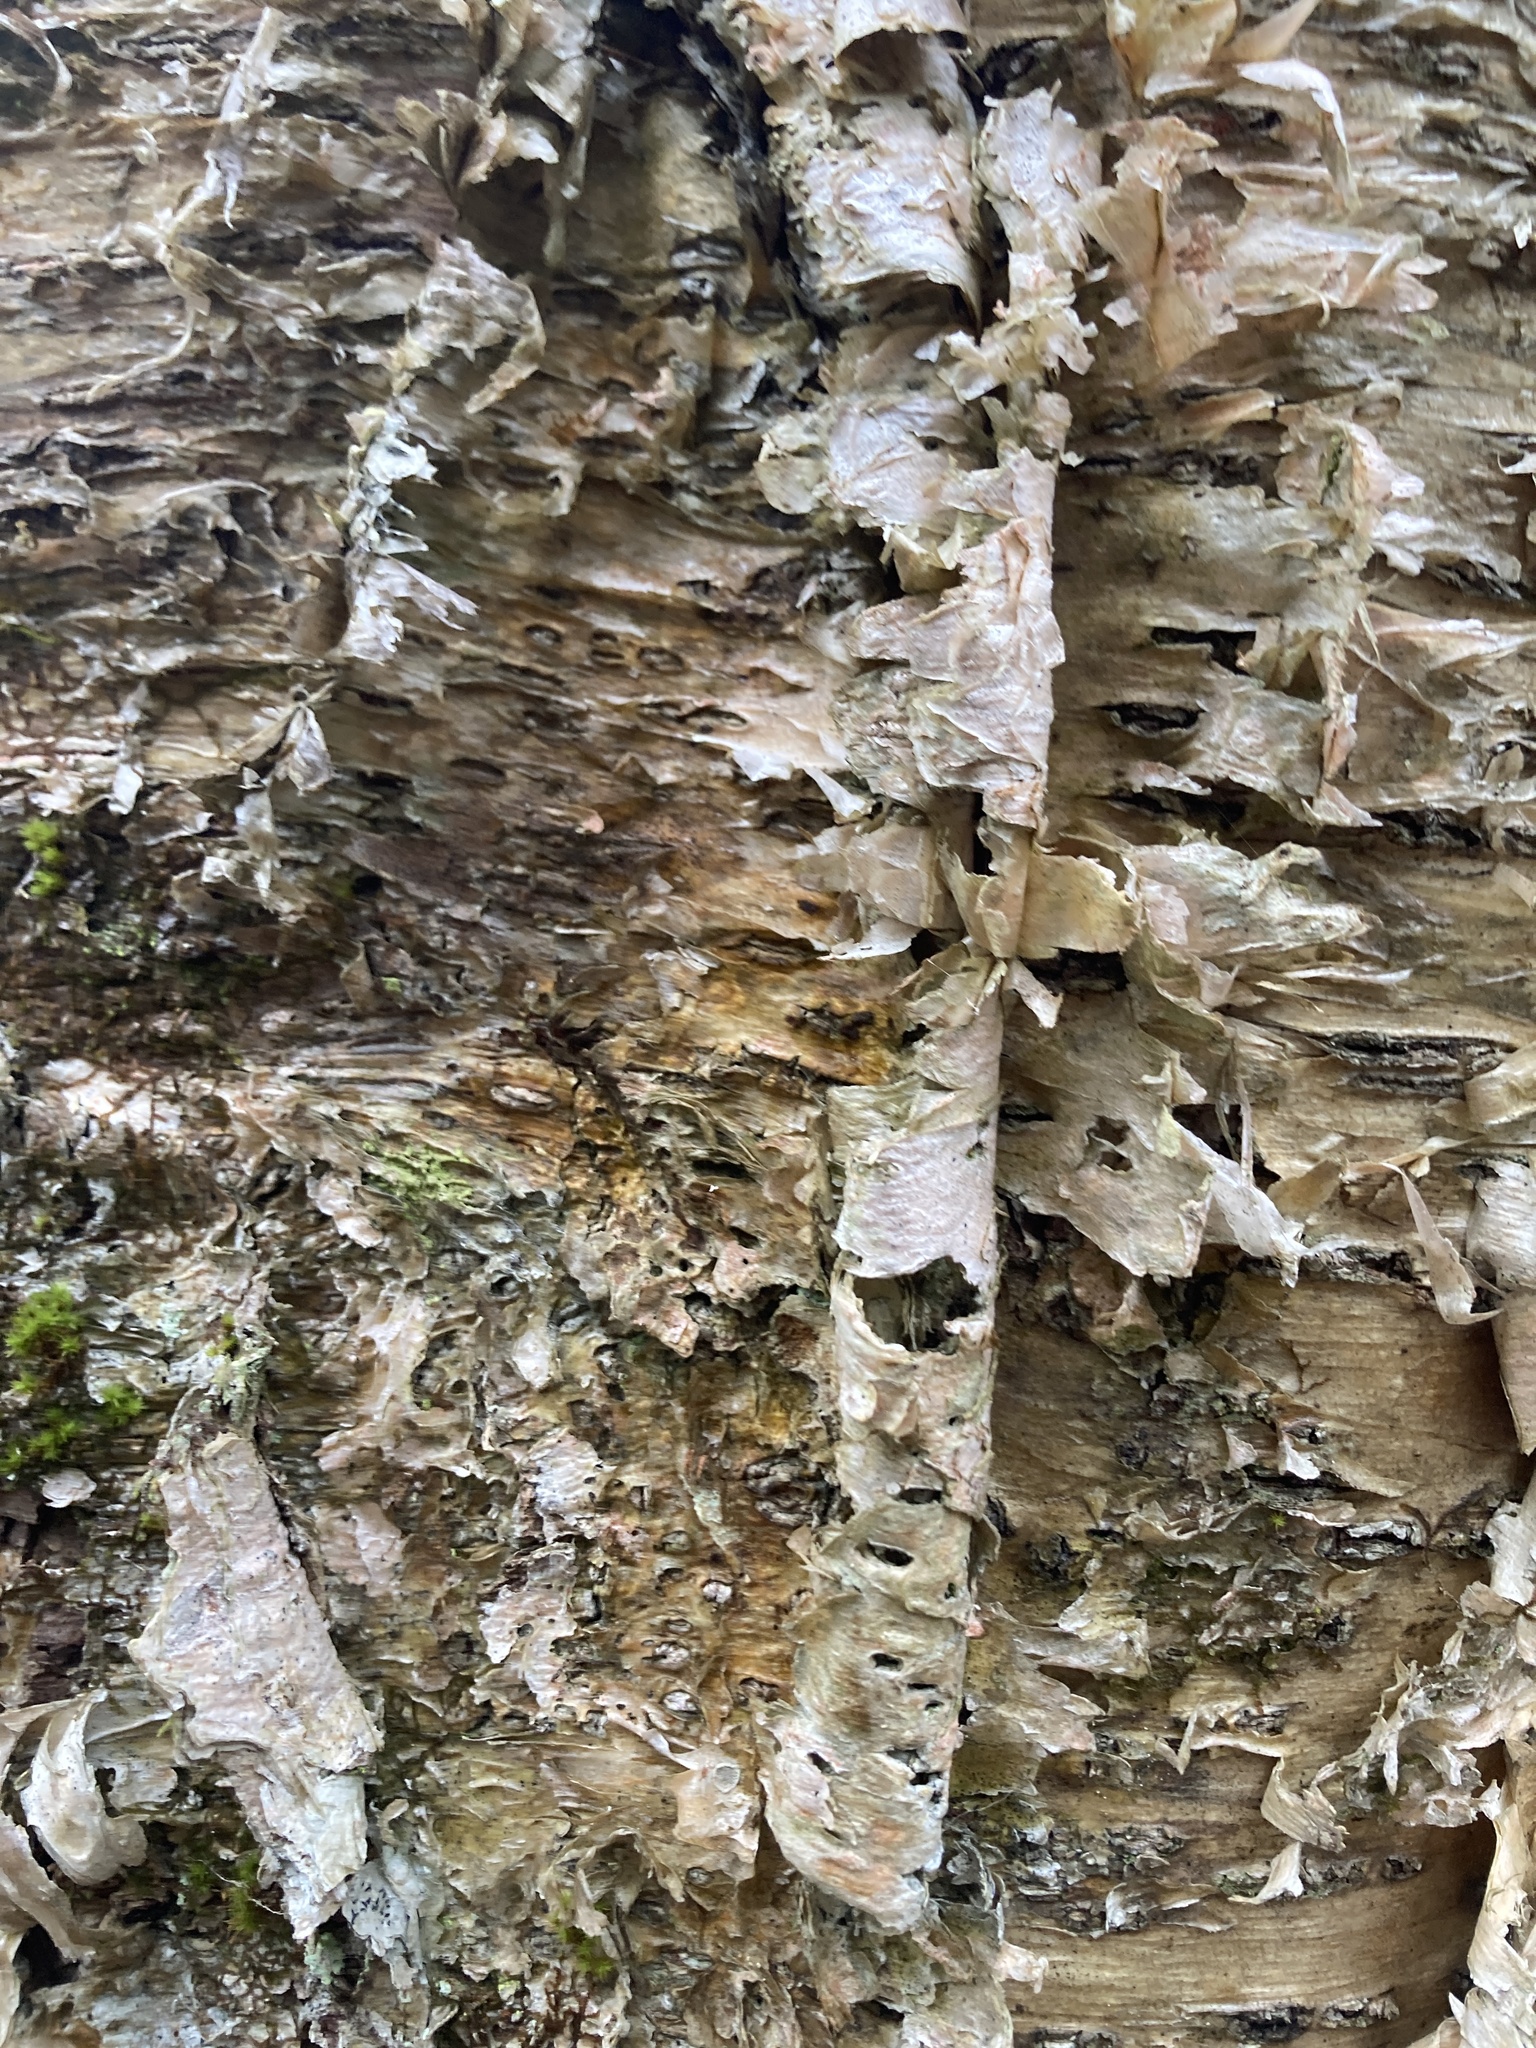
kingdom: Plantae
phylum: Tracheophyta
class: Magnoliopsida
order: Fagales
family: Betulaceae
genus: Betula
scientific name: Betula alleghaniensis
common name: Yellow birch
